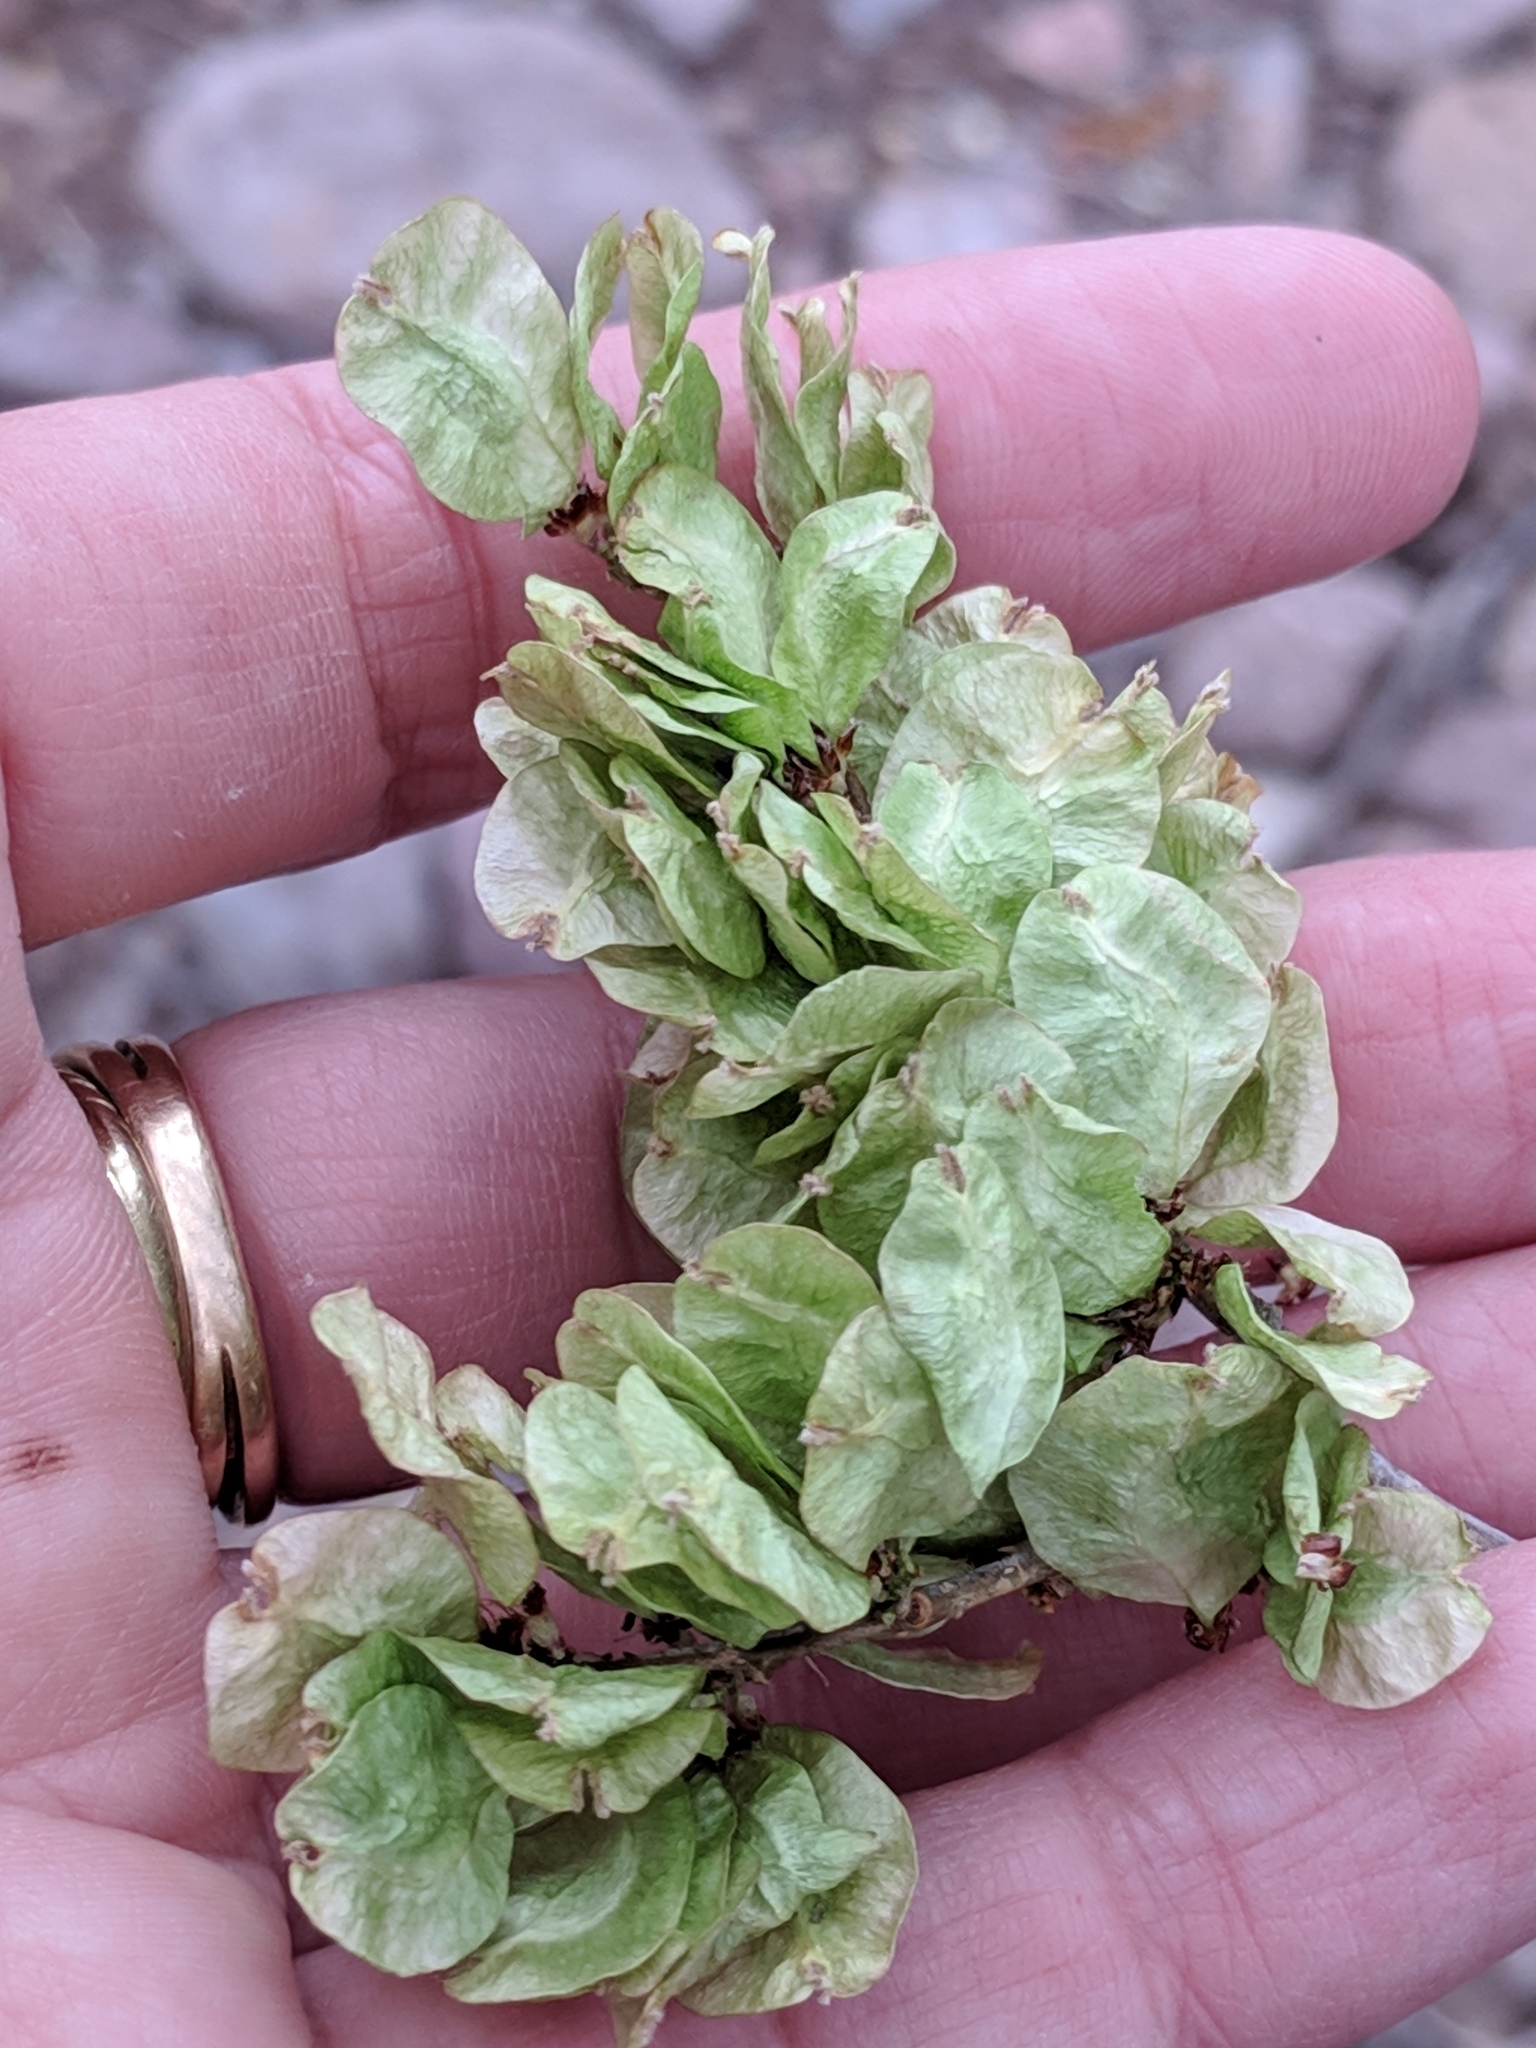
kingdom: Plantae
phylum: Tracheophyta
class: Magnoliopsida
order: Rosales
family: Ulmaceae
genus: Ulmus
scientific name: Ulmus pumila
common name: Siberian elm
